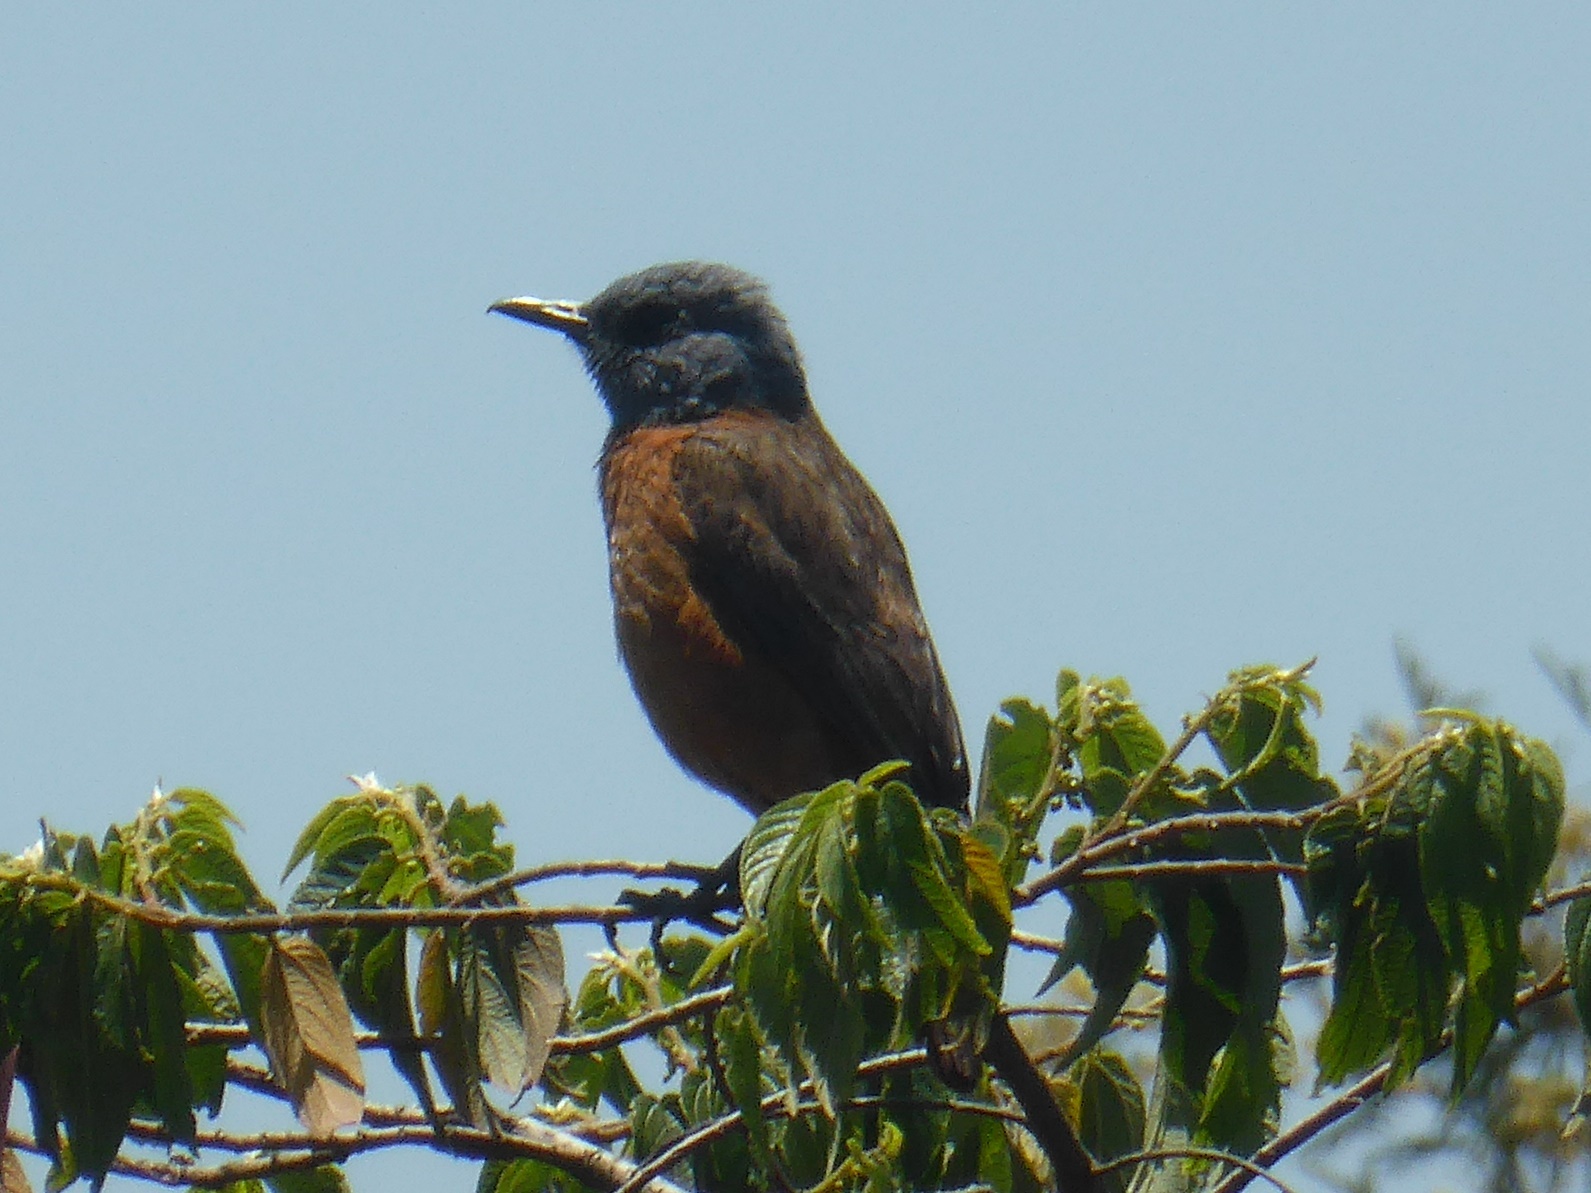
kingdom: Animalia
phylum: Chordata
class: Aves
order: Passeriformes
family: Muscicapidae
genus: Monticola
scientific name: Monticola rupestris
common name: Cape rock thrush
